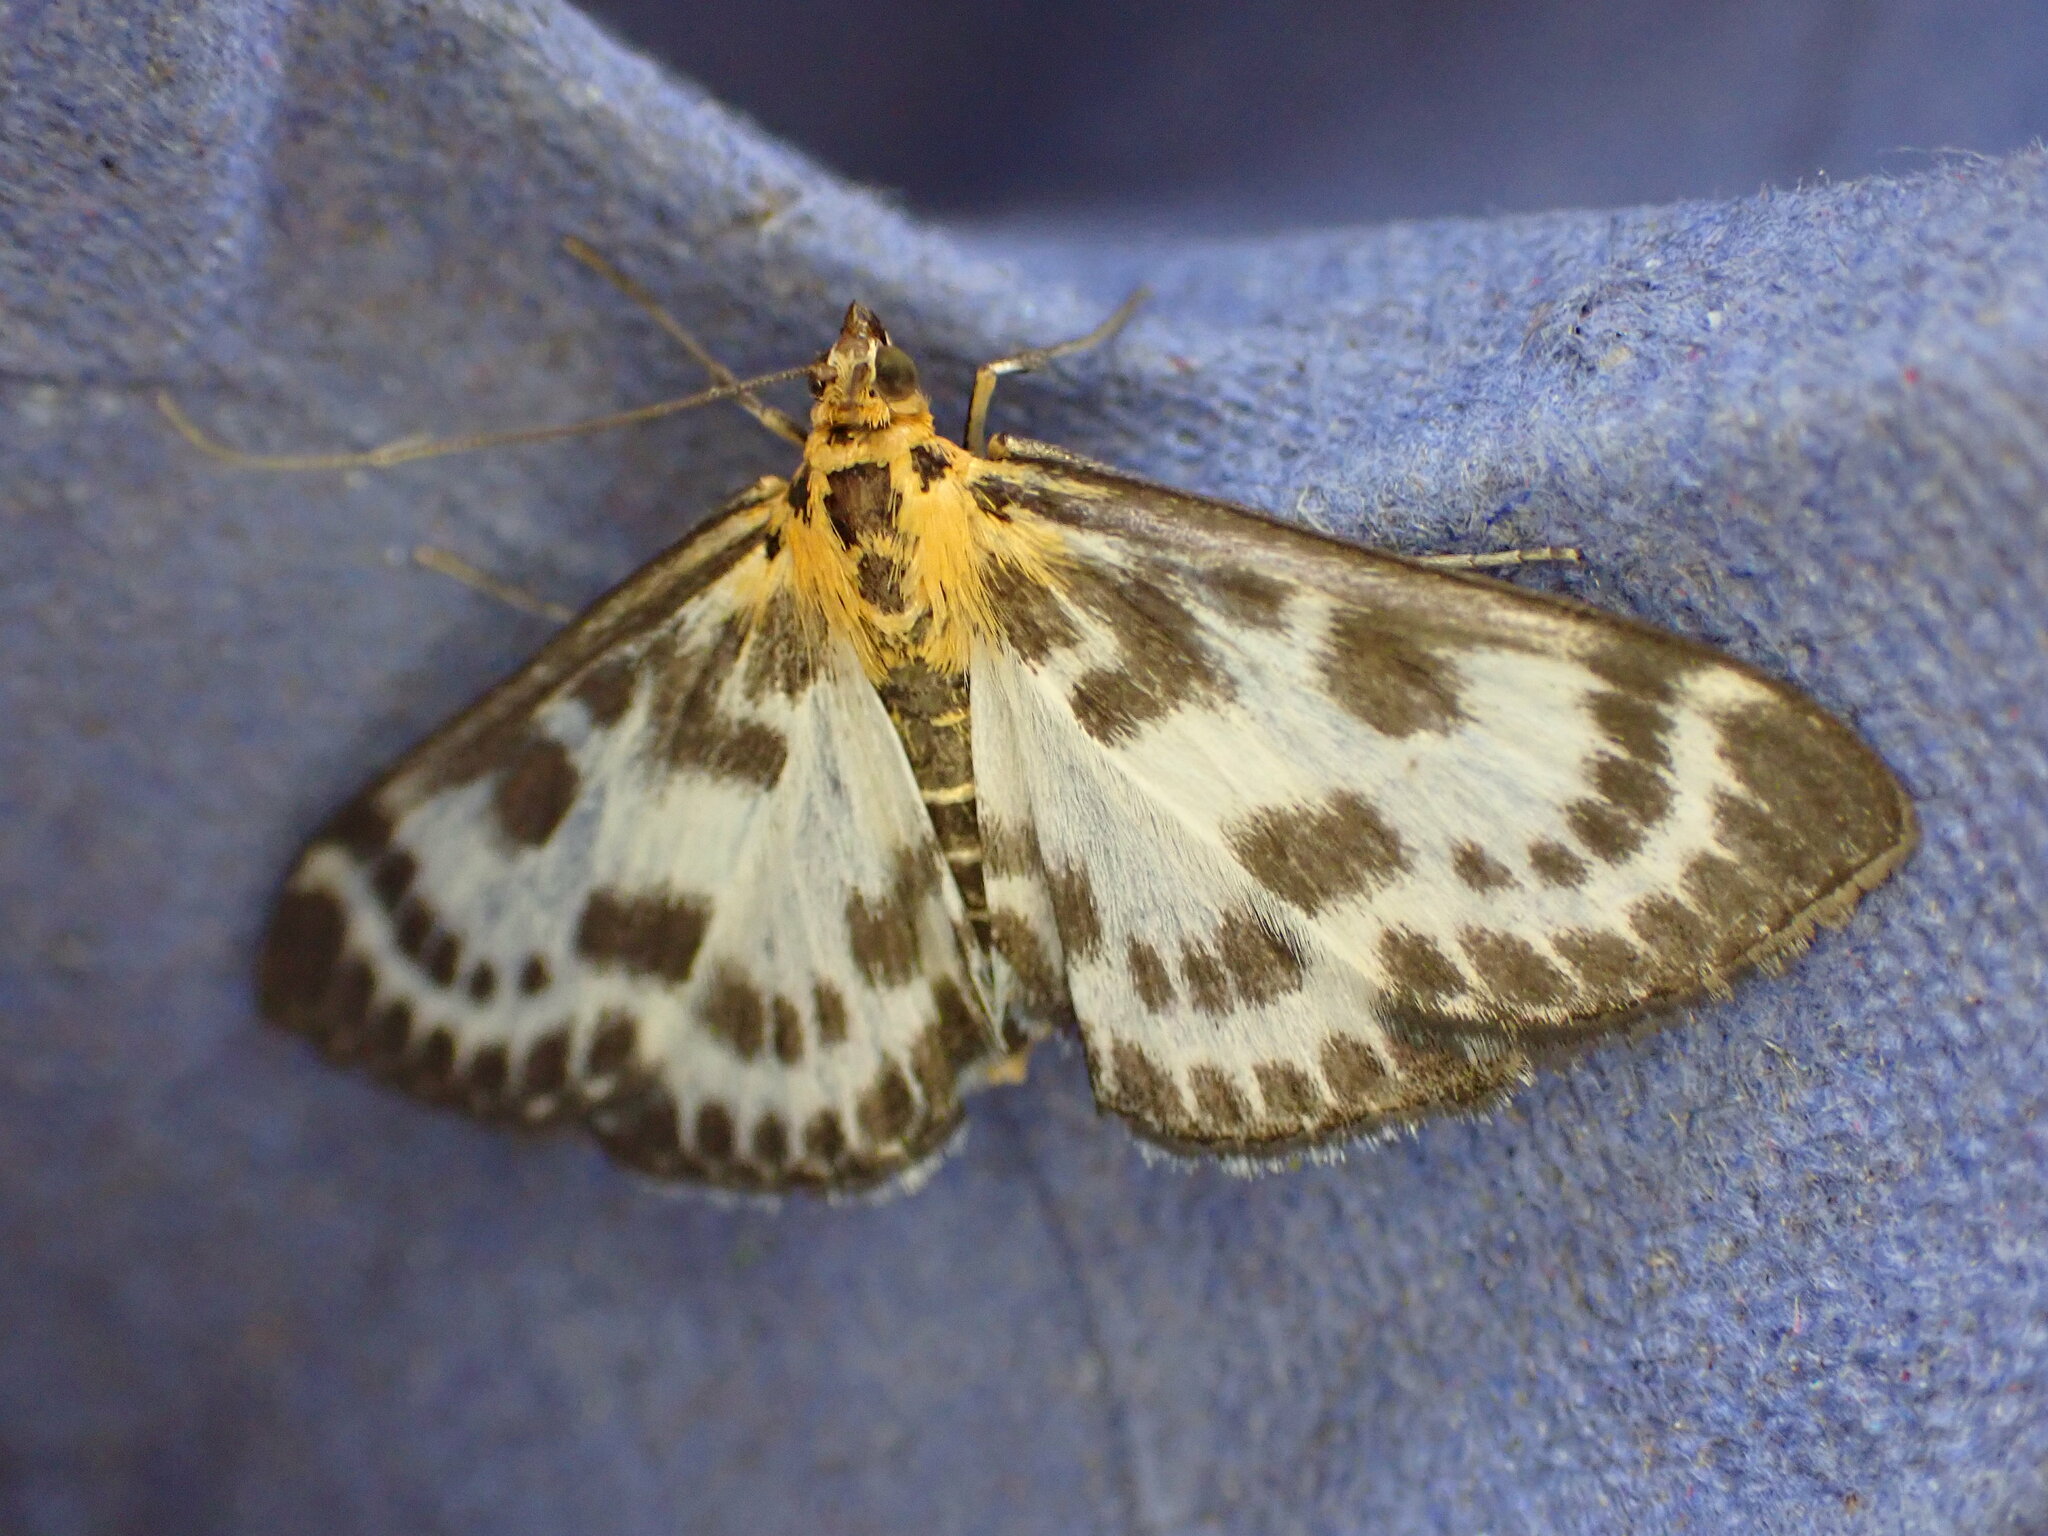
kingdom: Animalia
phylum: Arthropoda
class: Insecta
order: Lepidoptera
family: Crambidae
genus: Anania
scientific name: Anania hortulata
